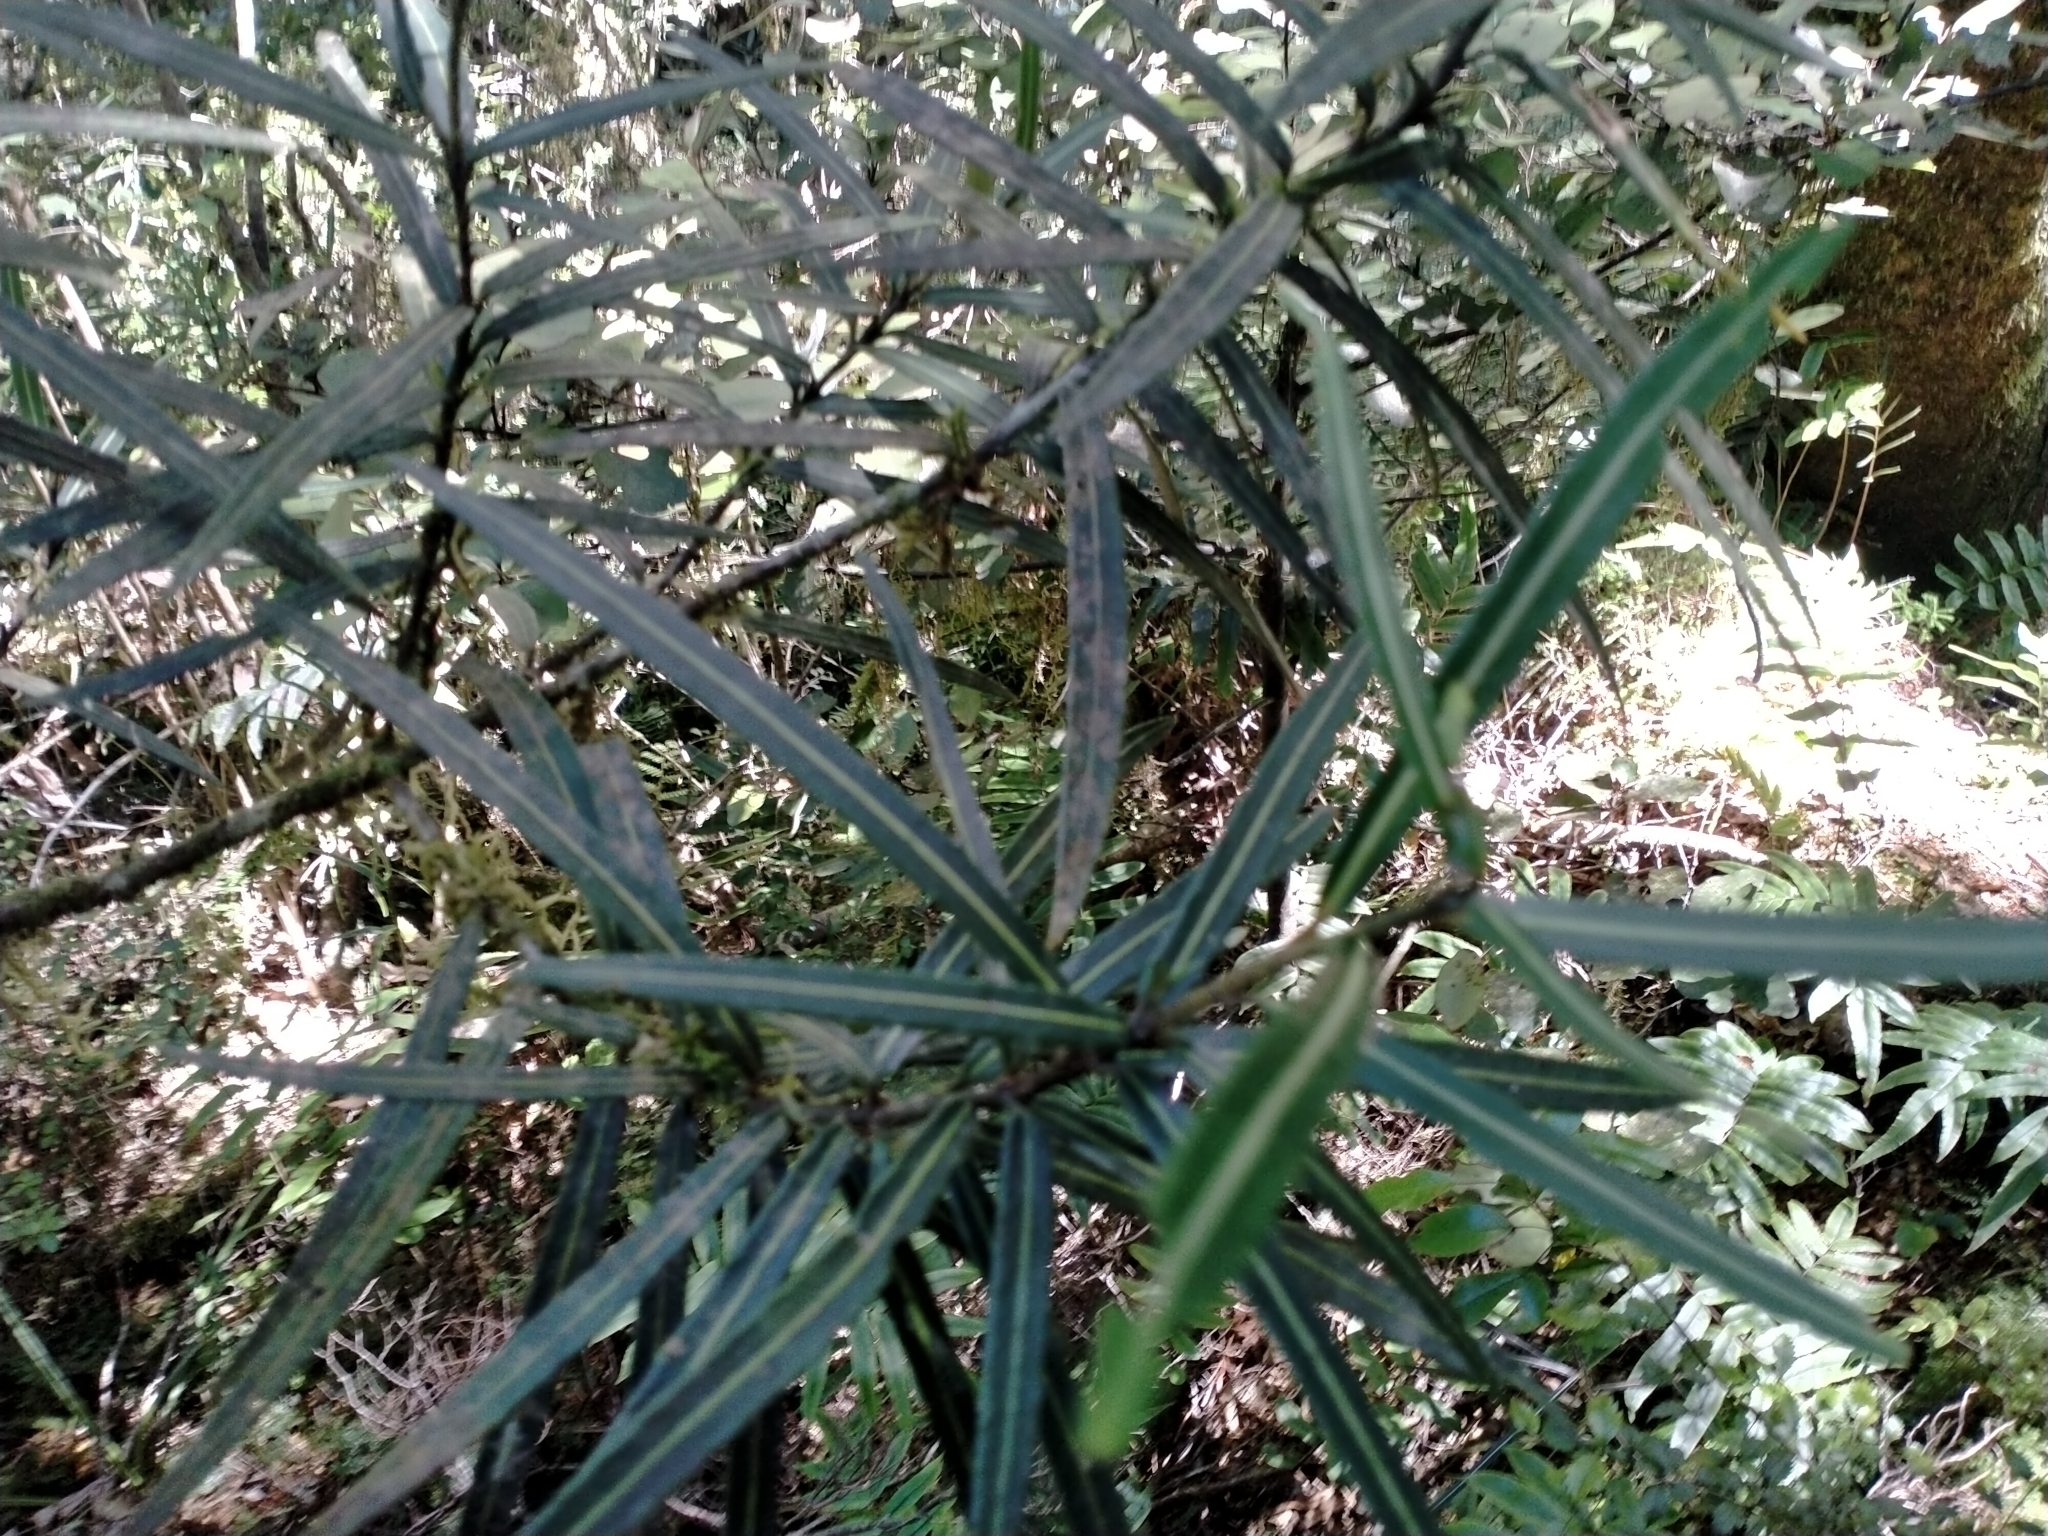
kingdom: Plantae
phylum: Tracheophyta
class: Magnoliopsida
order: Apiales
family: Araliaceae
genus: Pseudopanax
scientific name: Pseudopanax linearis
